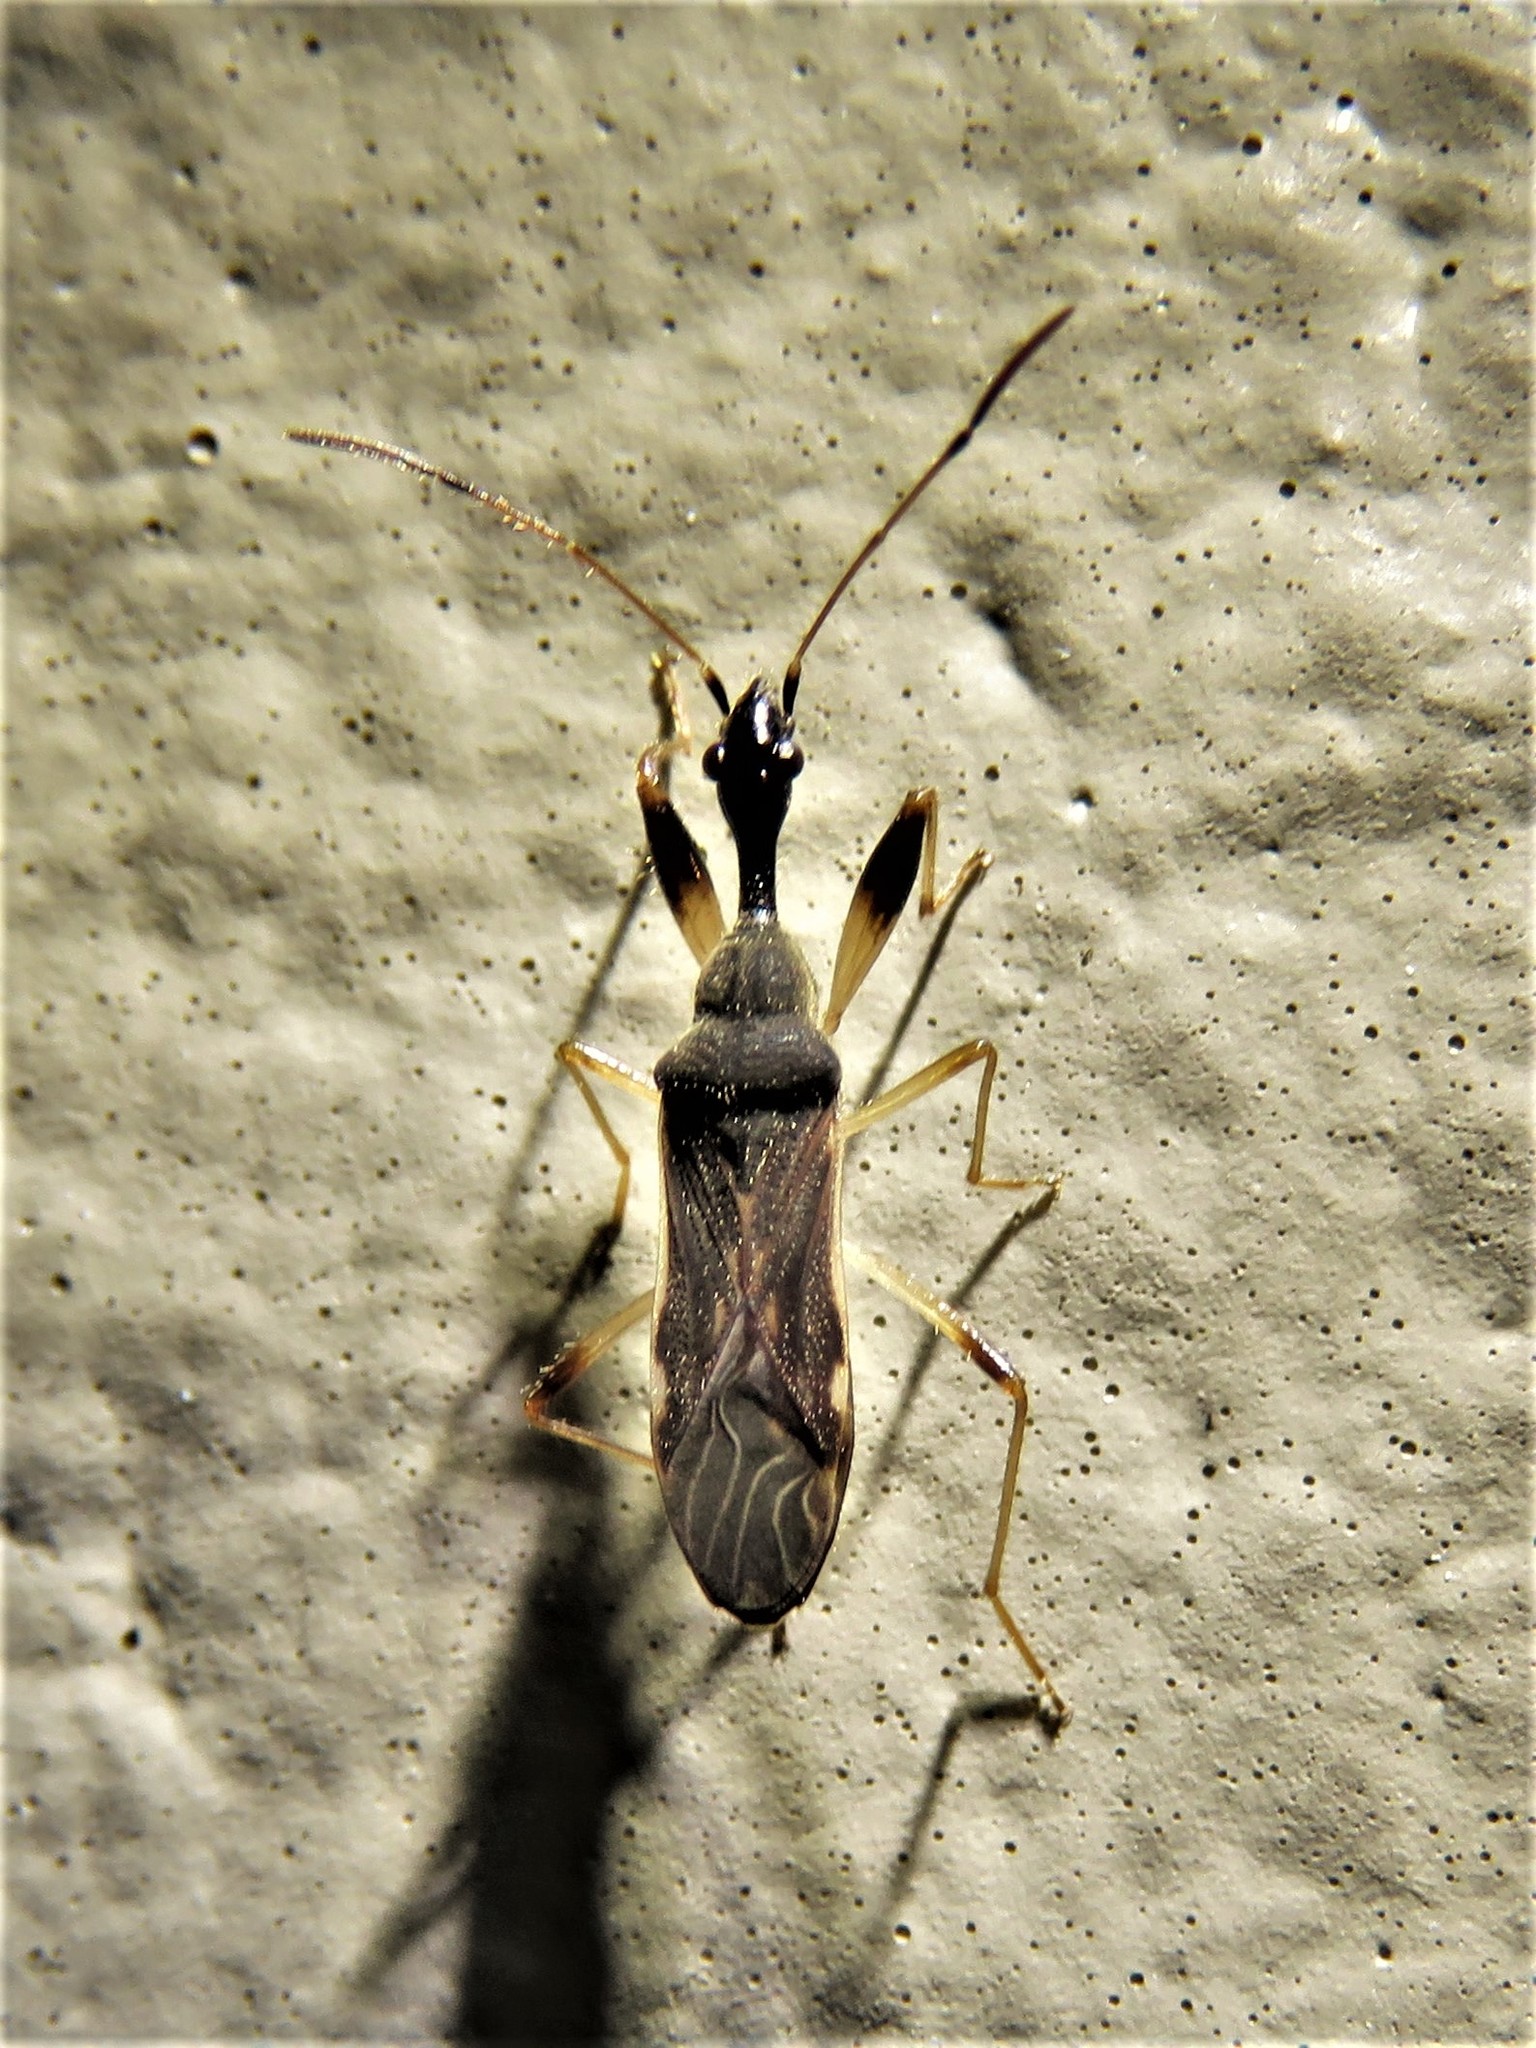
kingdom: Animalia
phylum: Arthropoda
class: Insecta
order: Hemiptera
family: Rhyparochromidae
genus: Myodocha
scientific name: Myodocha serripes
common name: Long-necked seed bug
